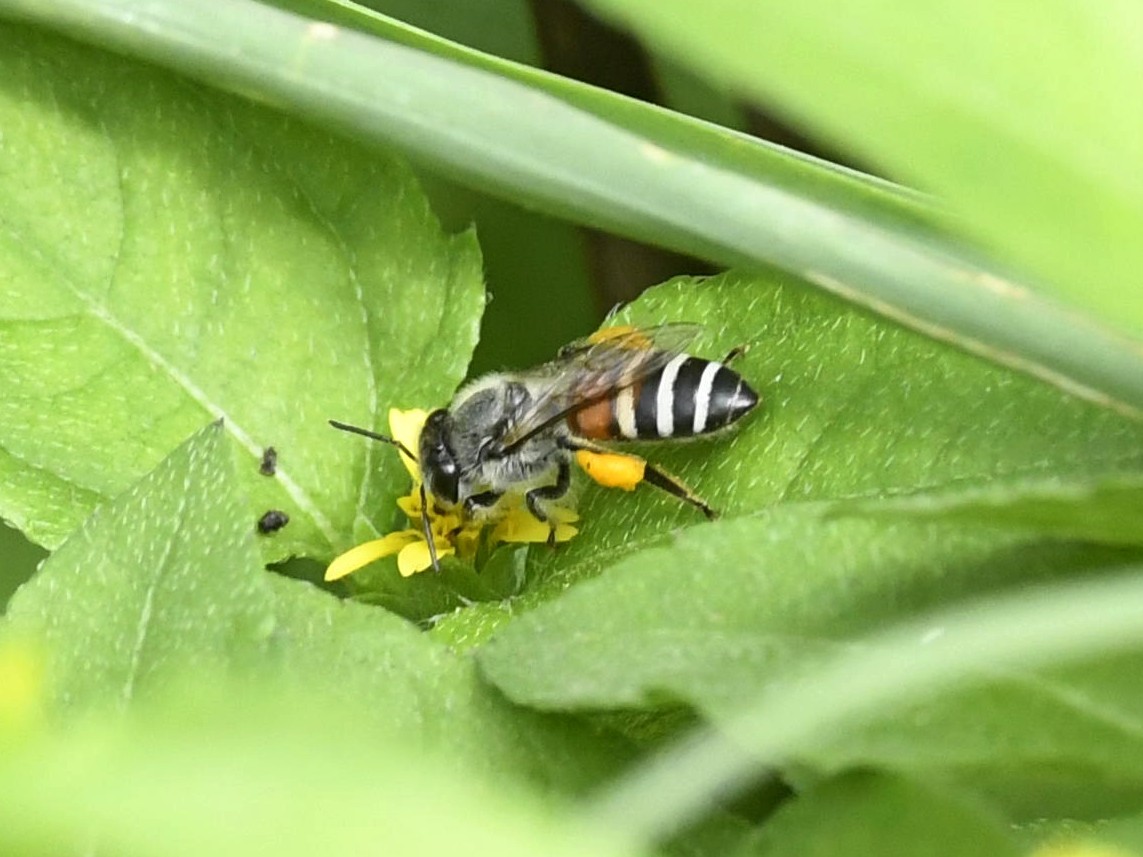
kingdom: Animalia
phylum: Arthropoda
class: Insecta
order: Hymenoptera
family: Apidae
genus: Apis
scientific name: Apis florea
